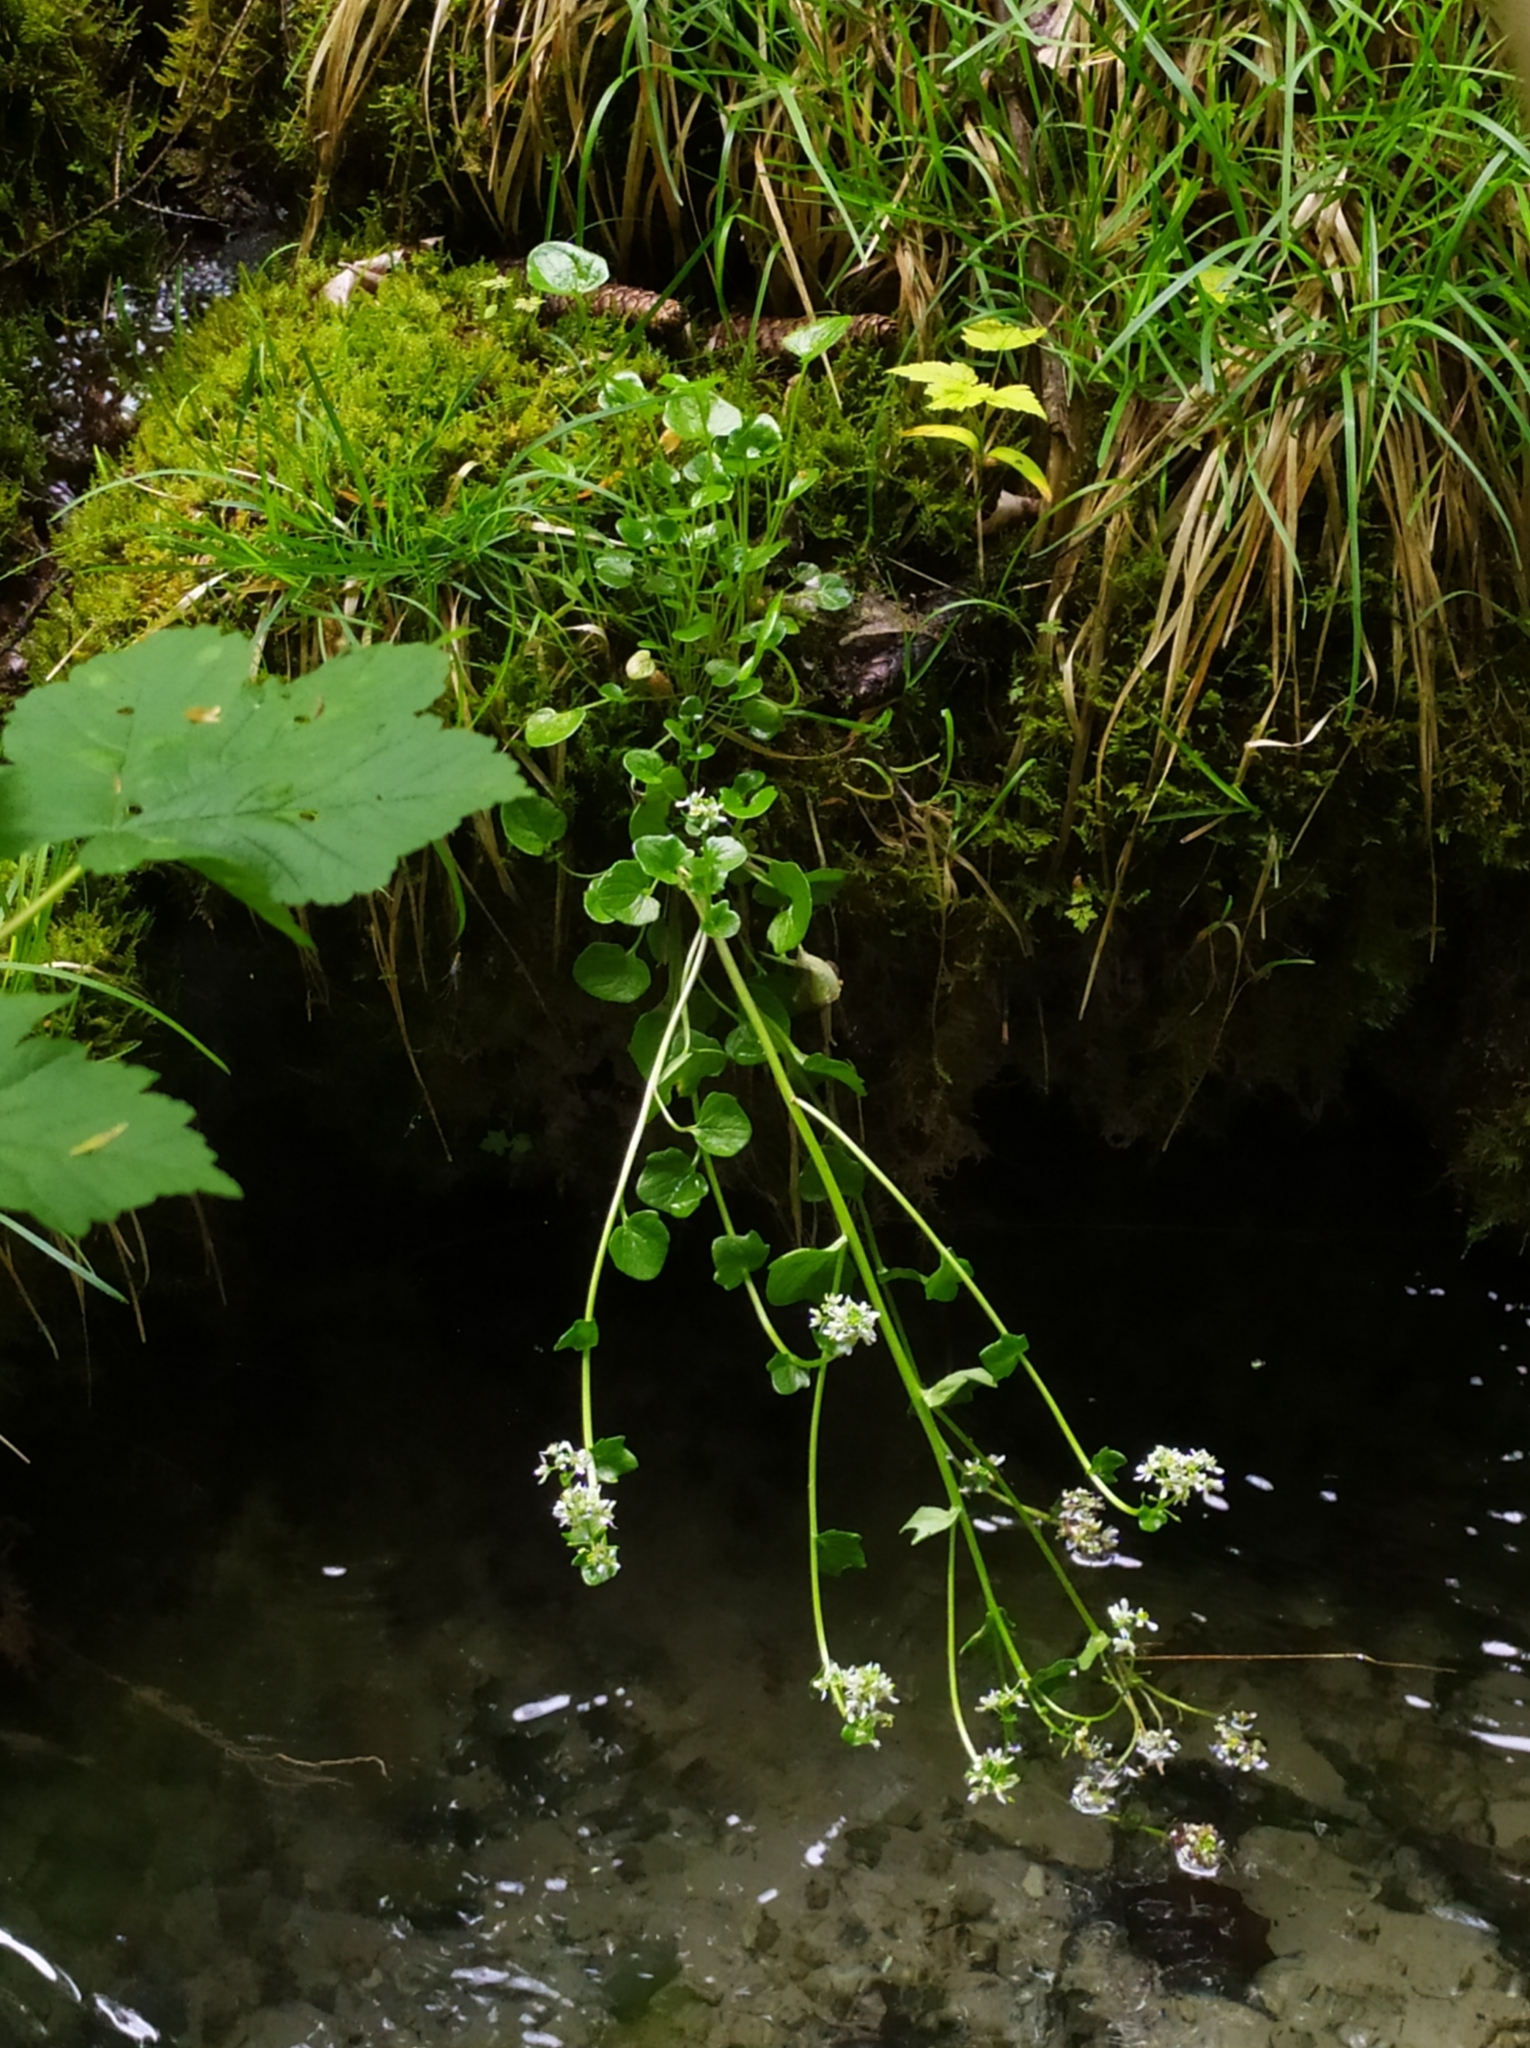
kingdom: Plantae
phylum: Tracheophyta
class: Magnoliopsida
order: Brassicales
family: Brassicaceae
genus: Cochlearia
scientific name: Cochlearia bavarica
